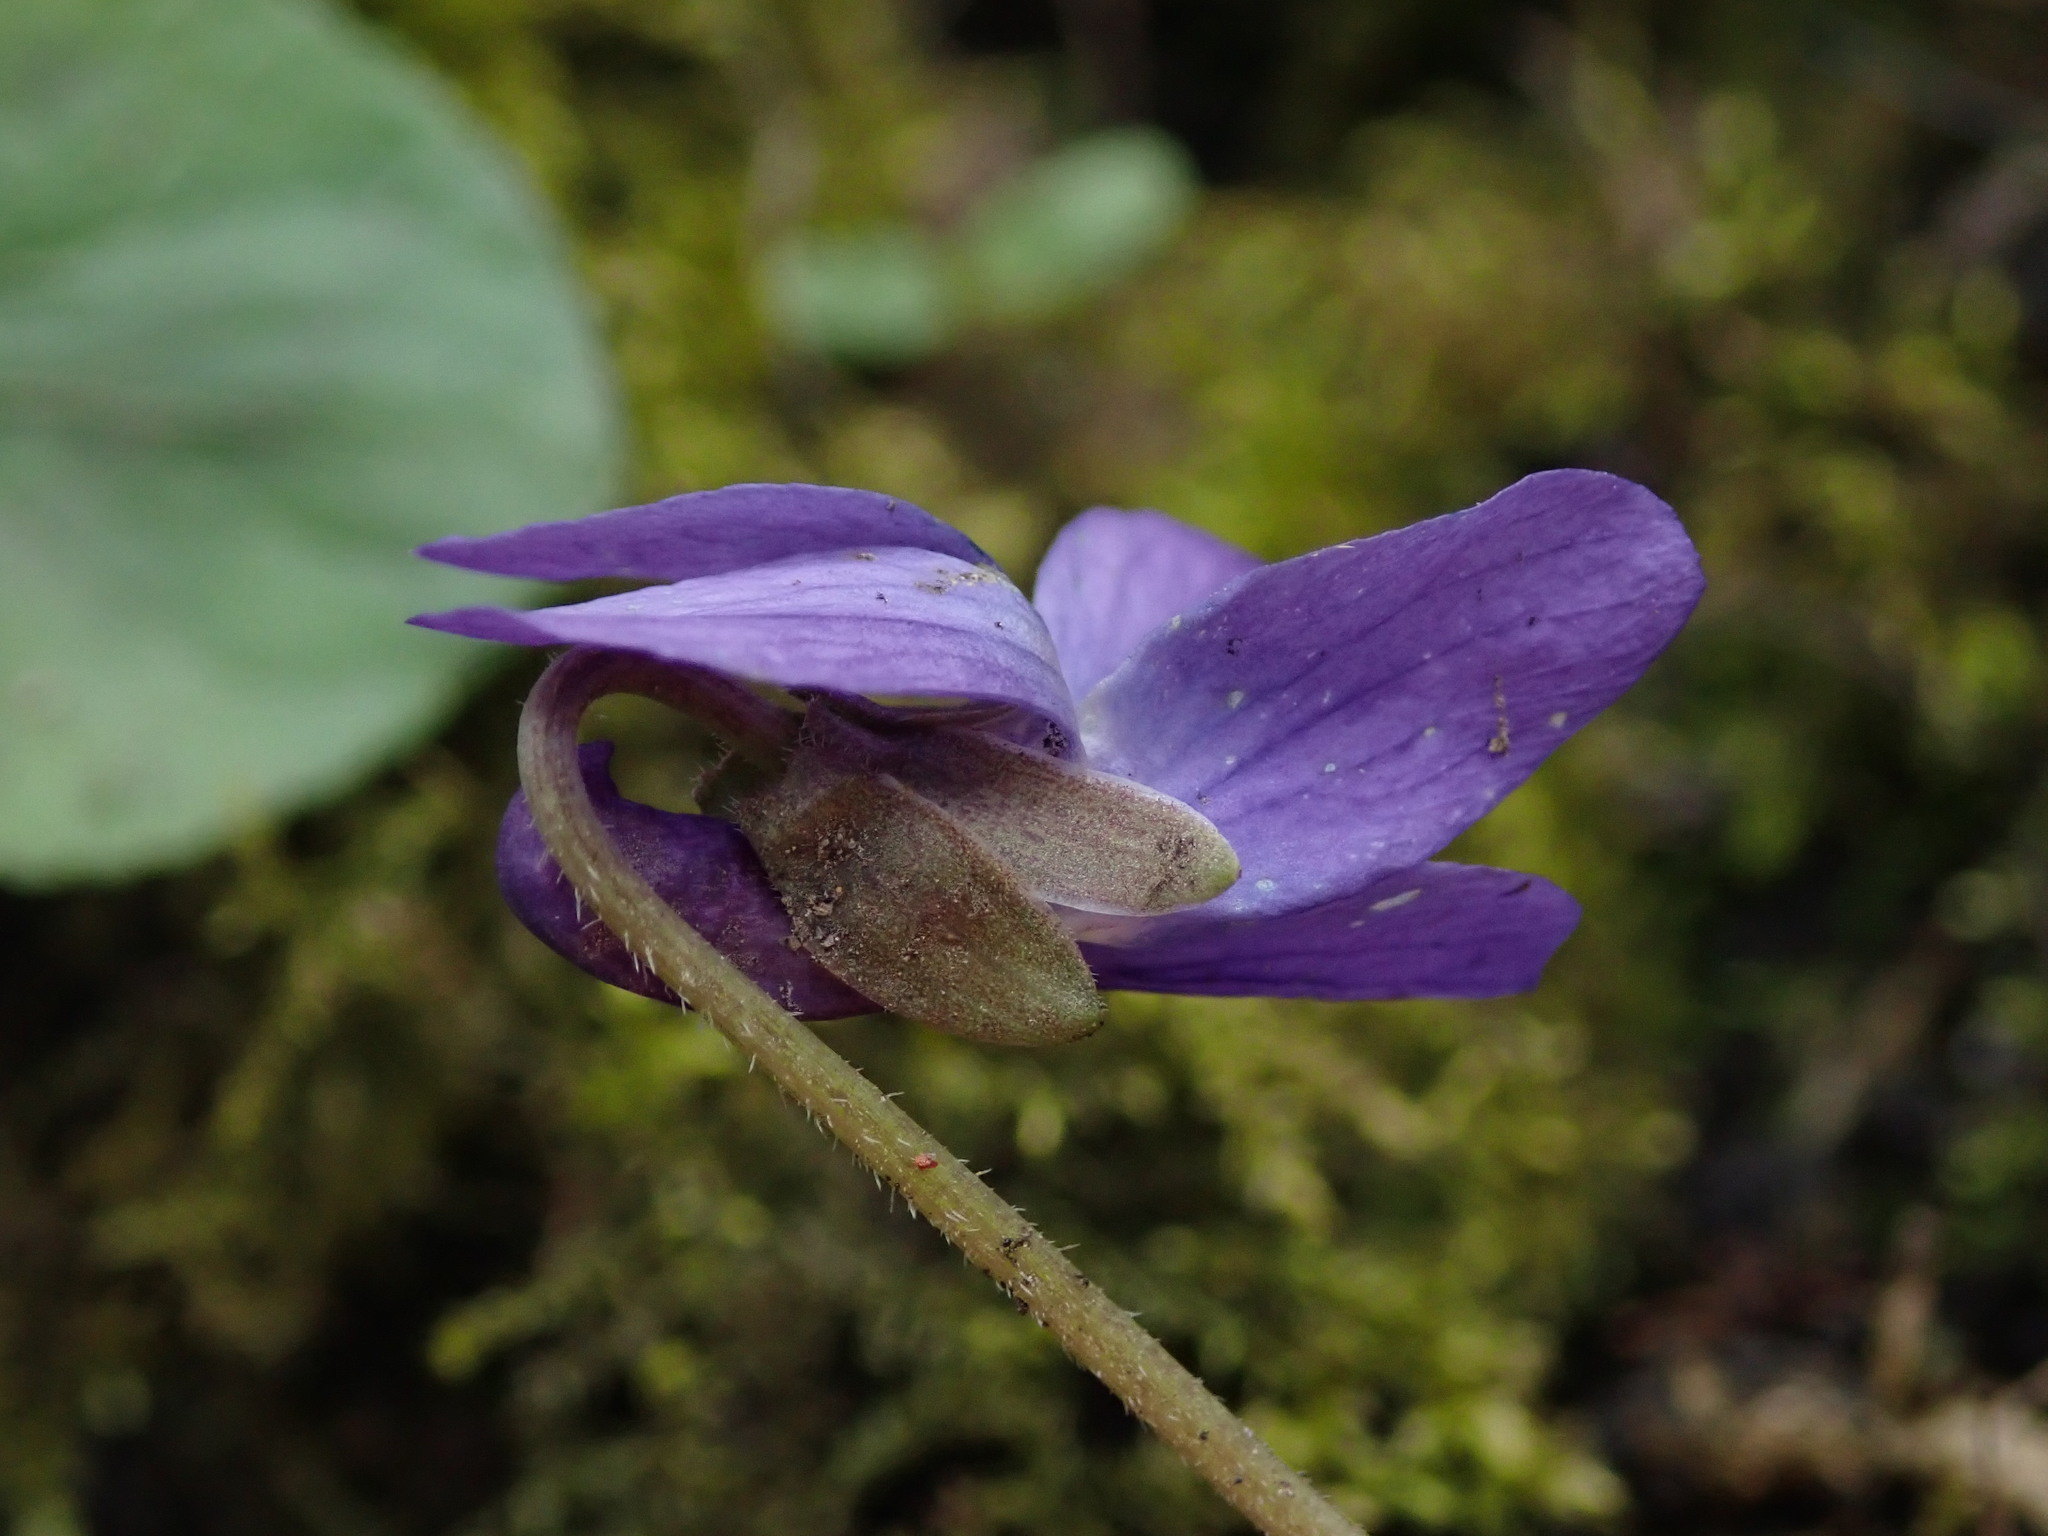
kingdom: Plantae
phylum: Tracheophyta
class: Magnoliopsida
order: Malpighiales
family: Violaceae
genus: Viola
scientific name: Viola odorata
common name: Sweet violet
